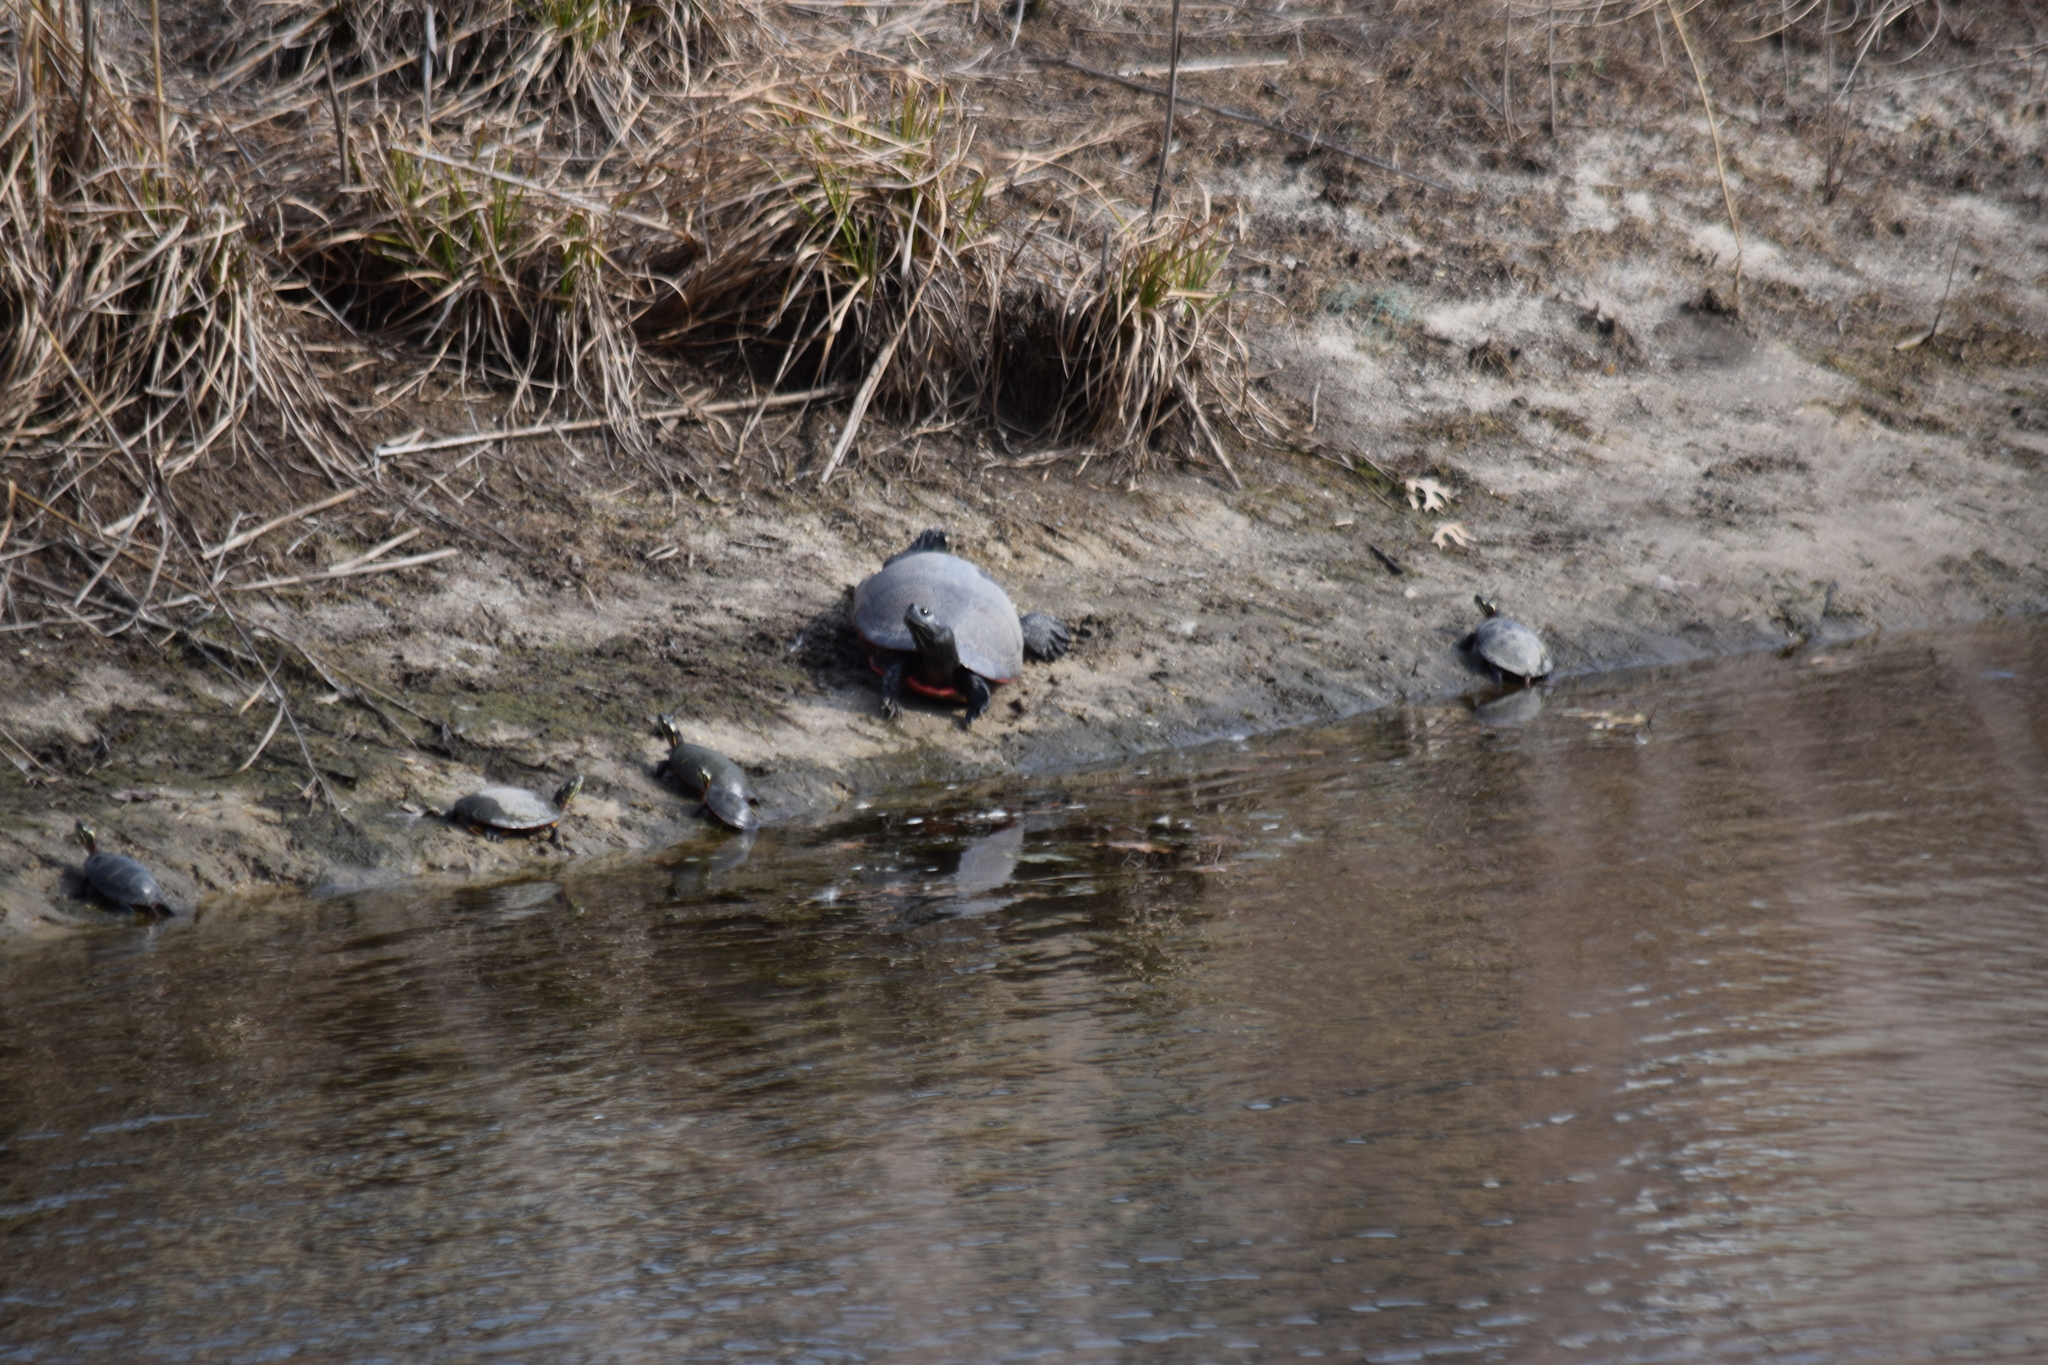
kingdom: Animalia
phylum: Chordata
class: Testudines
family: Emydidae
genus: Pseudemys
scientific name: Pseudemys rubriventris
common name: American red-bellied turtle
